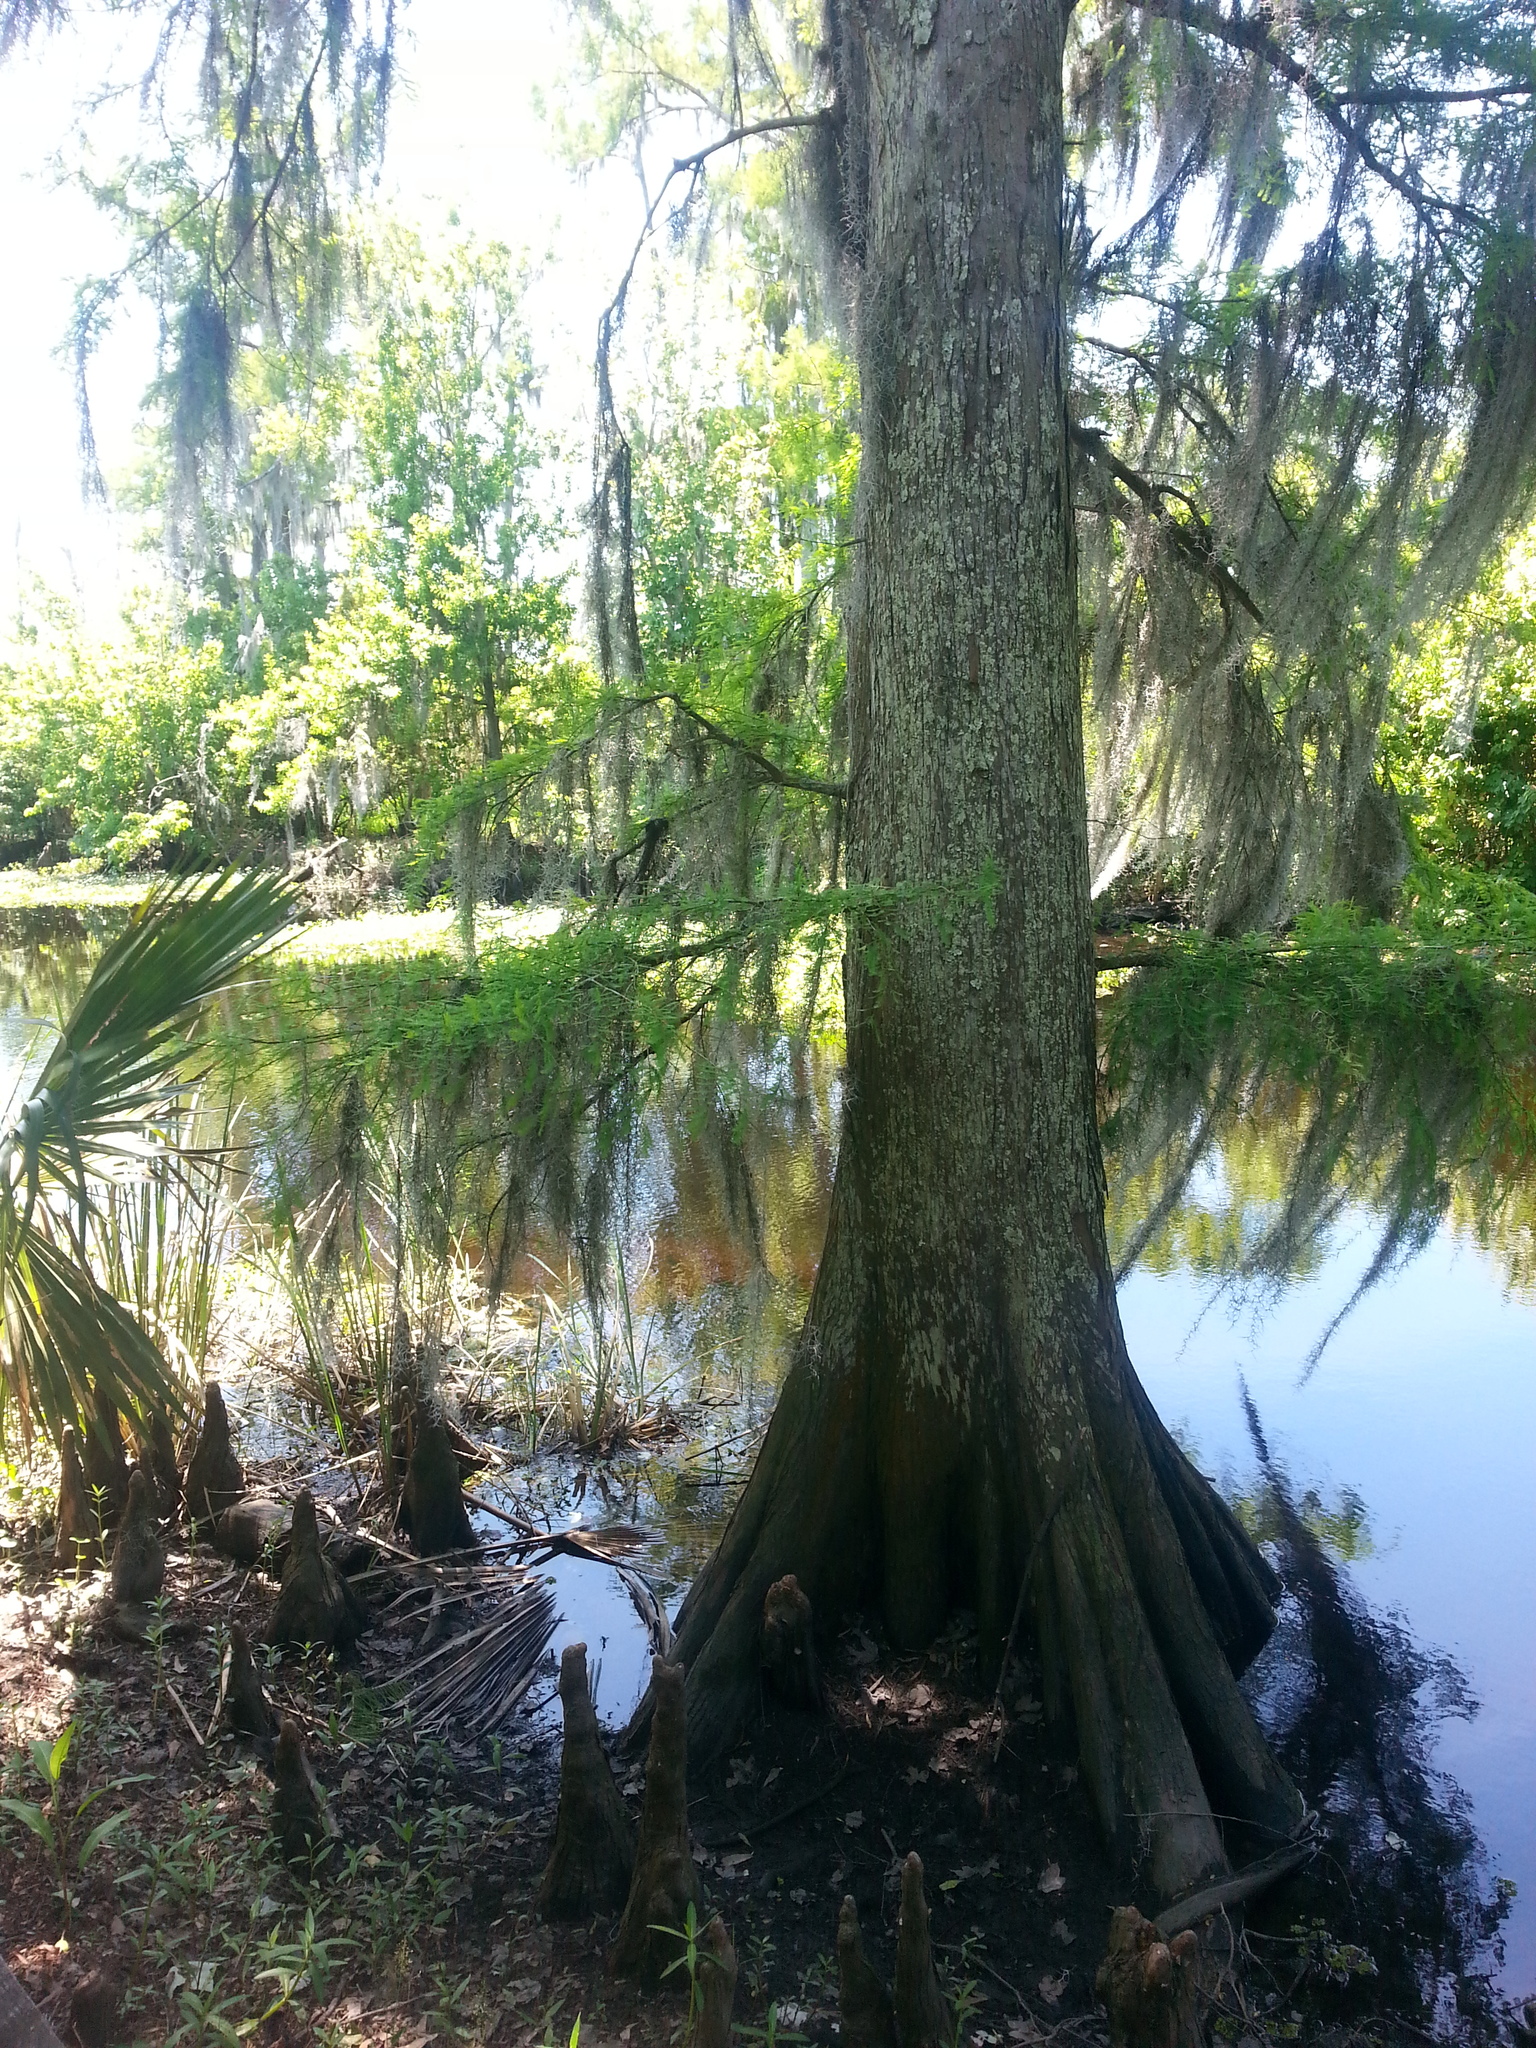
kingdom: Plantae
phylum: Tracheophyta
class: Pinopsida
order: Pinales
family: Cupressaceae
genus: Taxodium
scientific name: Taxodium distichum
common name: Bald cypress
